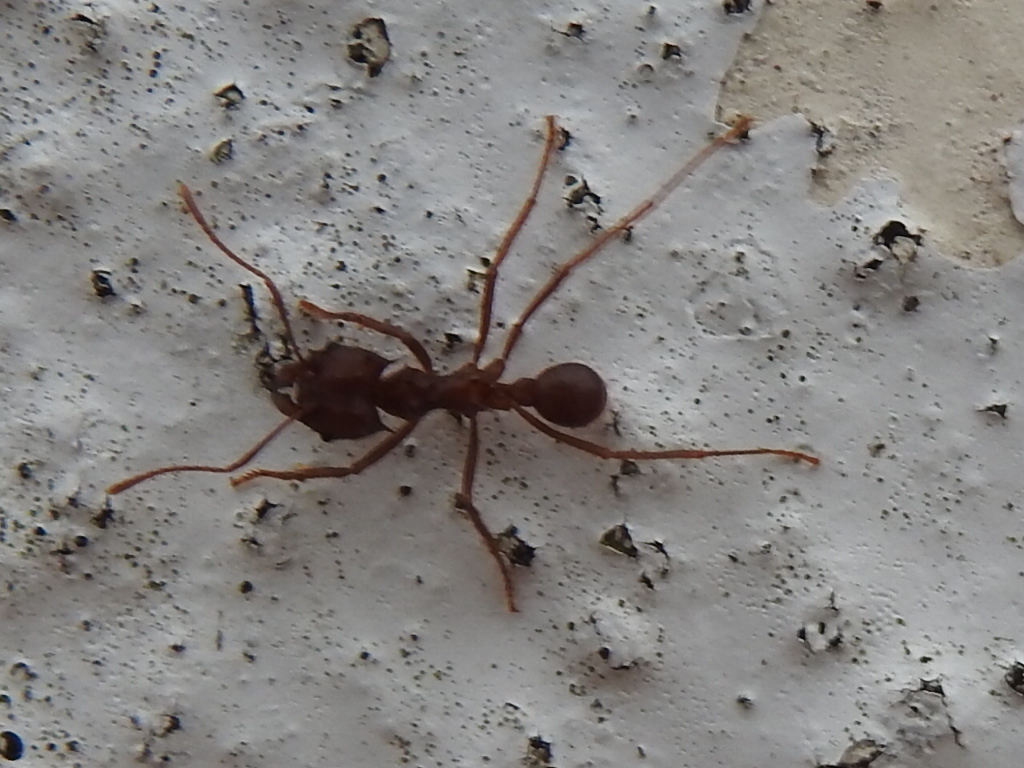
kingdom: Animalia
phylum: Arthropoda
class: Insecta
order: Hymenoptera
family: Formicidae
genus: Atta
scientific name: Atta texana
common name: Texas leafcutting ant
